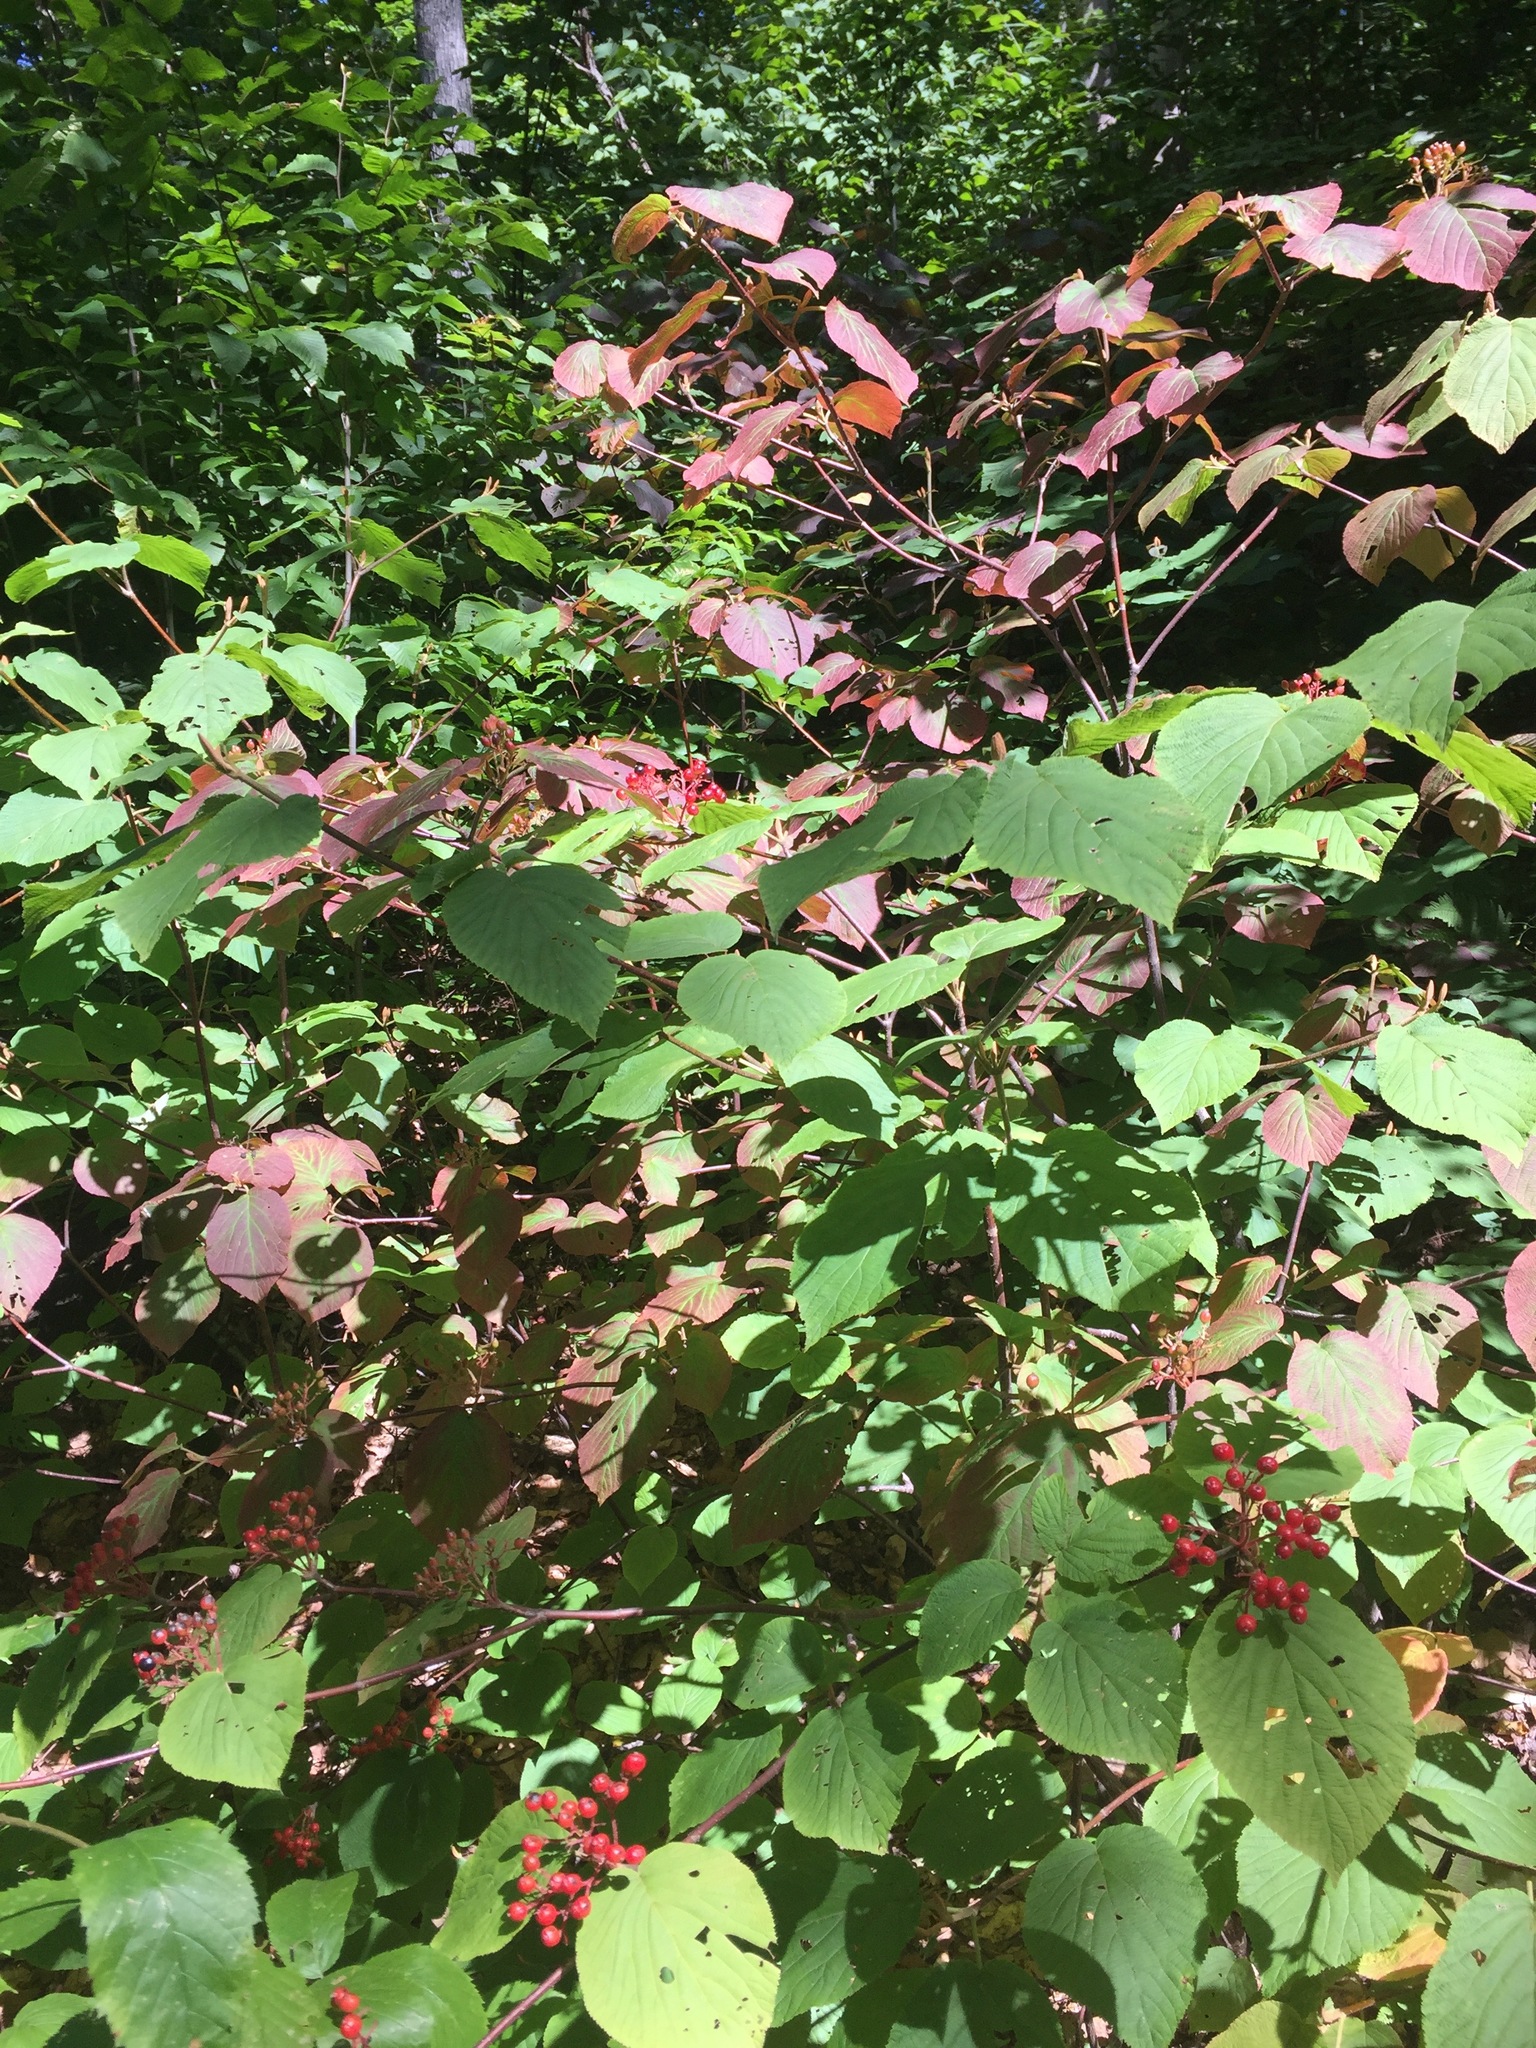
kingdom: Plantae
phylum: Tracheophyta
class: Magnoliopsida
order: Dipsacales
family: Viburnaceae
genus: Viburnum
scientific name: Viburnum lantanoides
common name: Hobblebush
